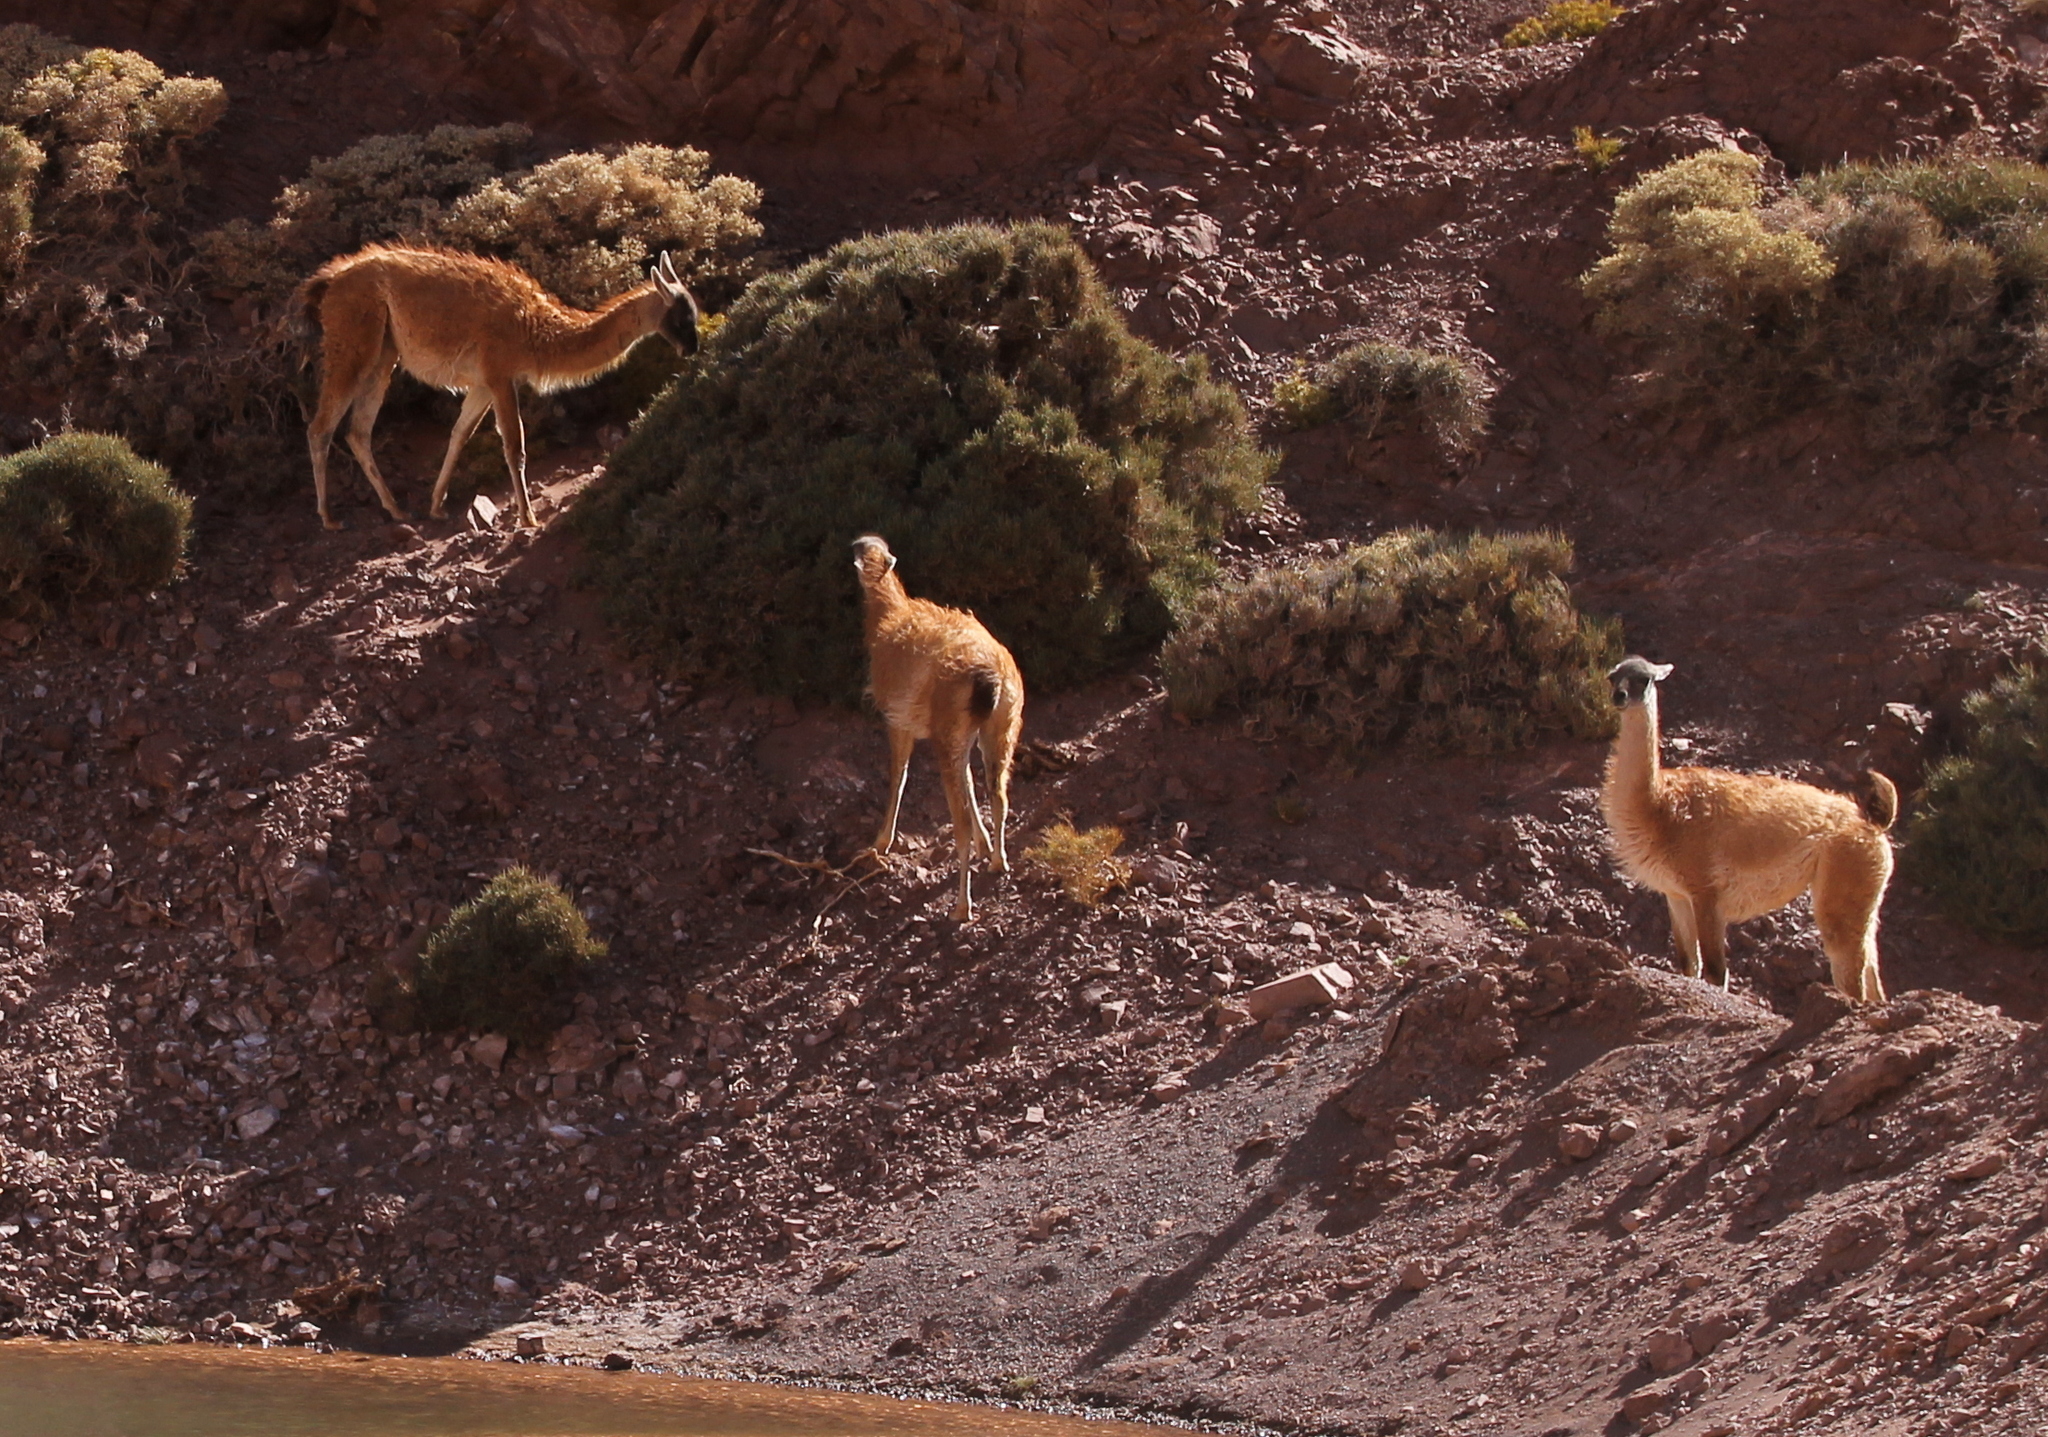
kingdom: Animalia
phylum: Chordata
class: Mammalia
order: Artiodactyla
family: Camelidae
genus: Lama
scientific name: Lama glama
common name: Llama
